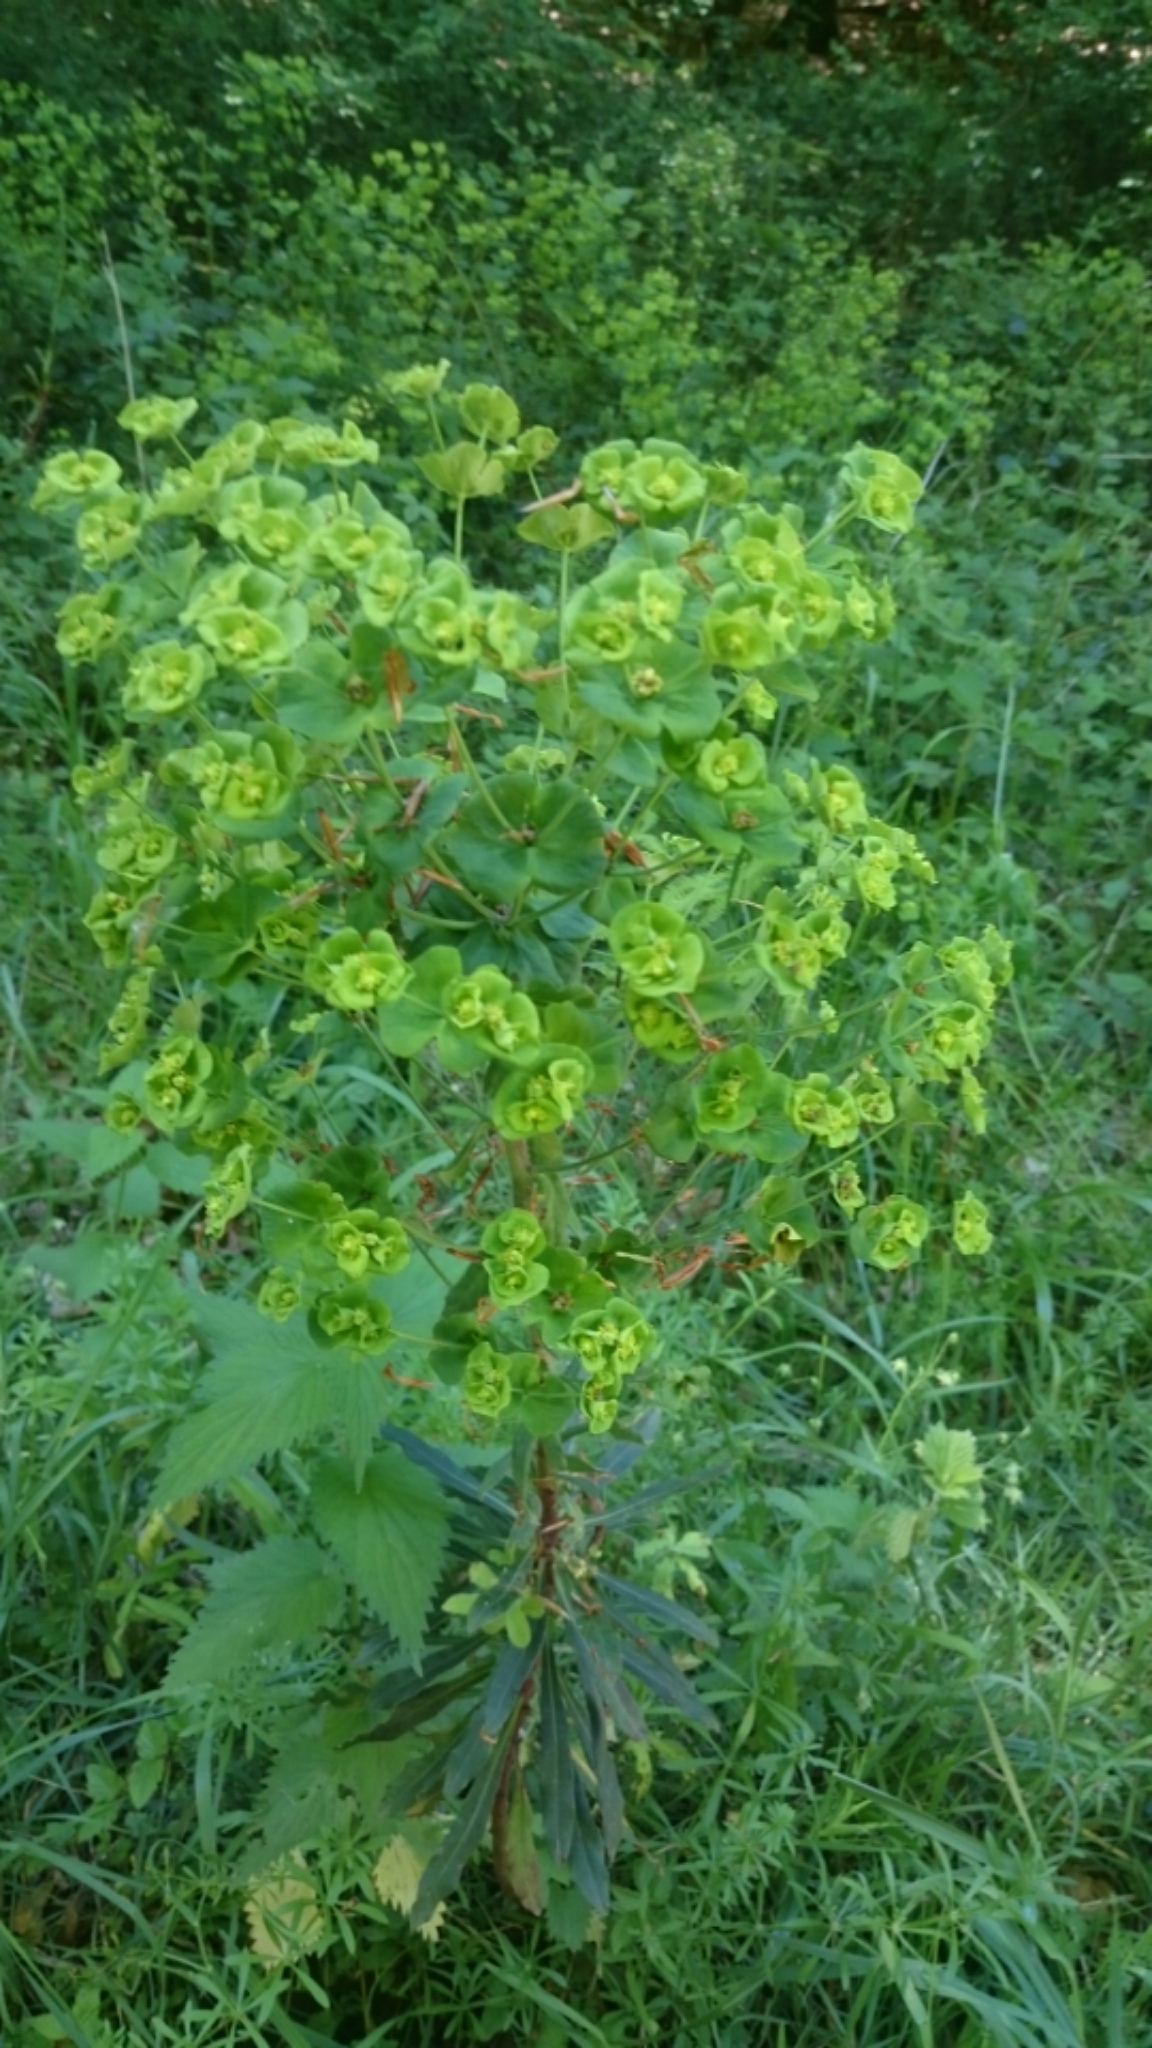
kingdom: Plantae
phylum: Tracheophyta
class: Magnoliopsida
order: Malpighiales
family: Euphorbiaceae
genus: Euphorbia
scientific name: Euphorbia amygdaloides
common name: Wood spurge
